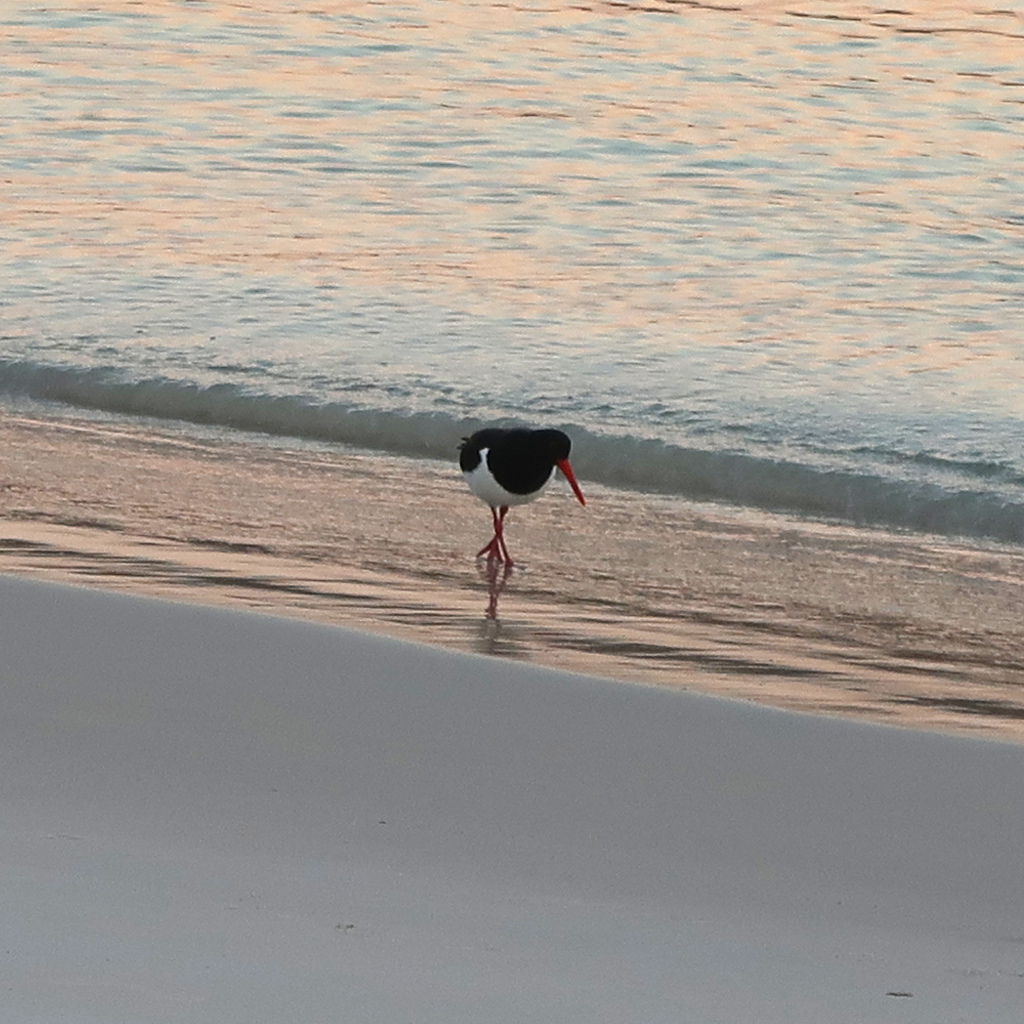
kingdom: Animalia
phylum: Chordata
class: Aves
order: Charadriiformes
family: Haematopodidae
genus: Haematopus
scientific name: Haematopus longirostris
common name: Pied oystercatcher
